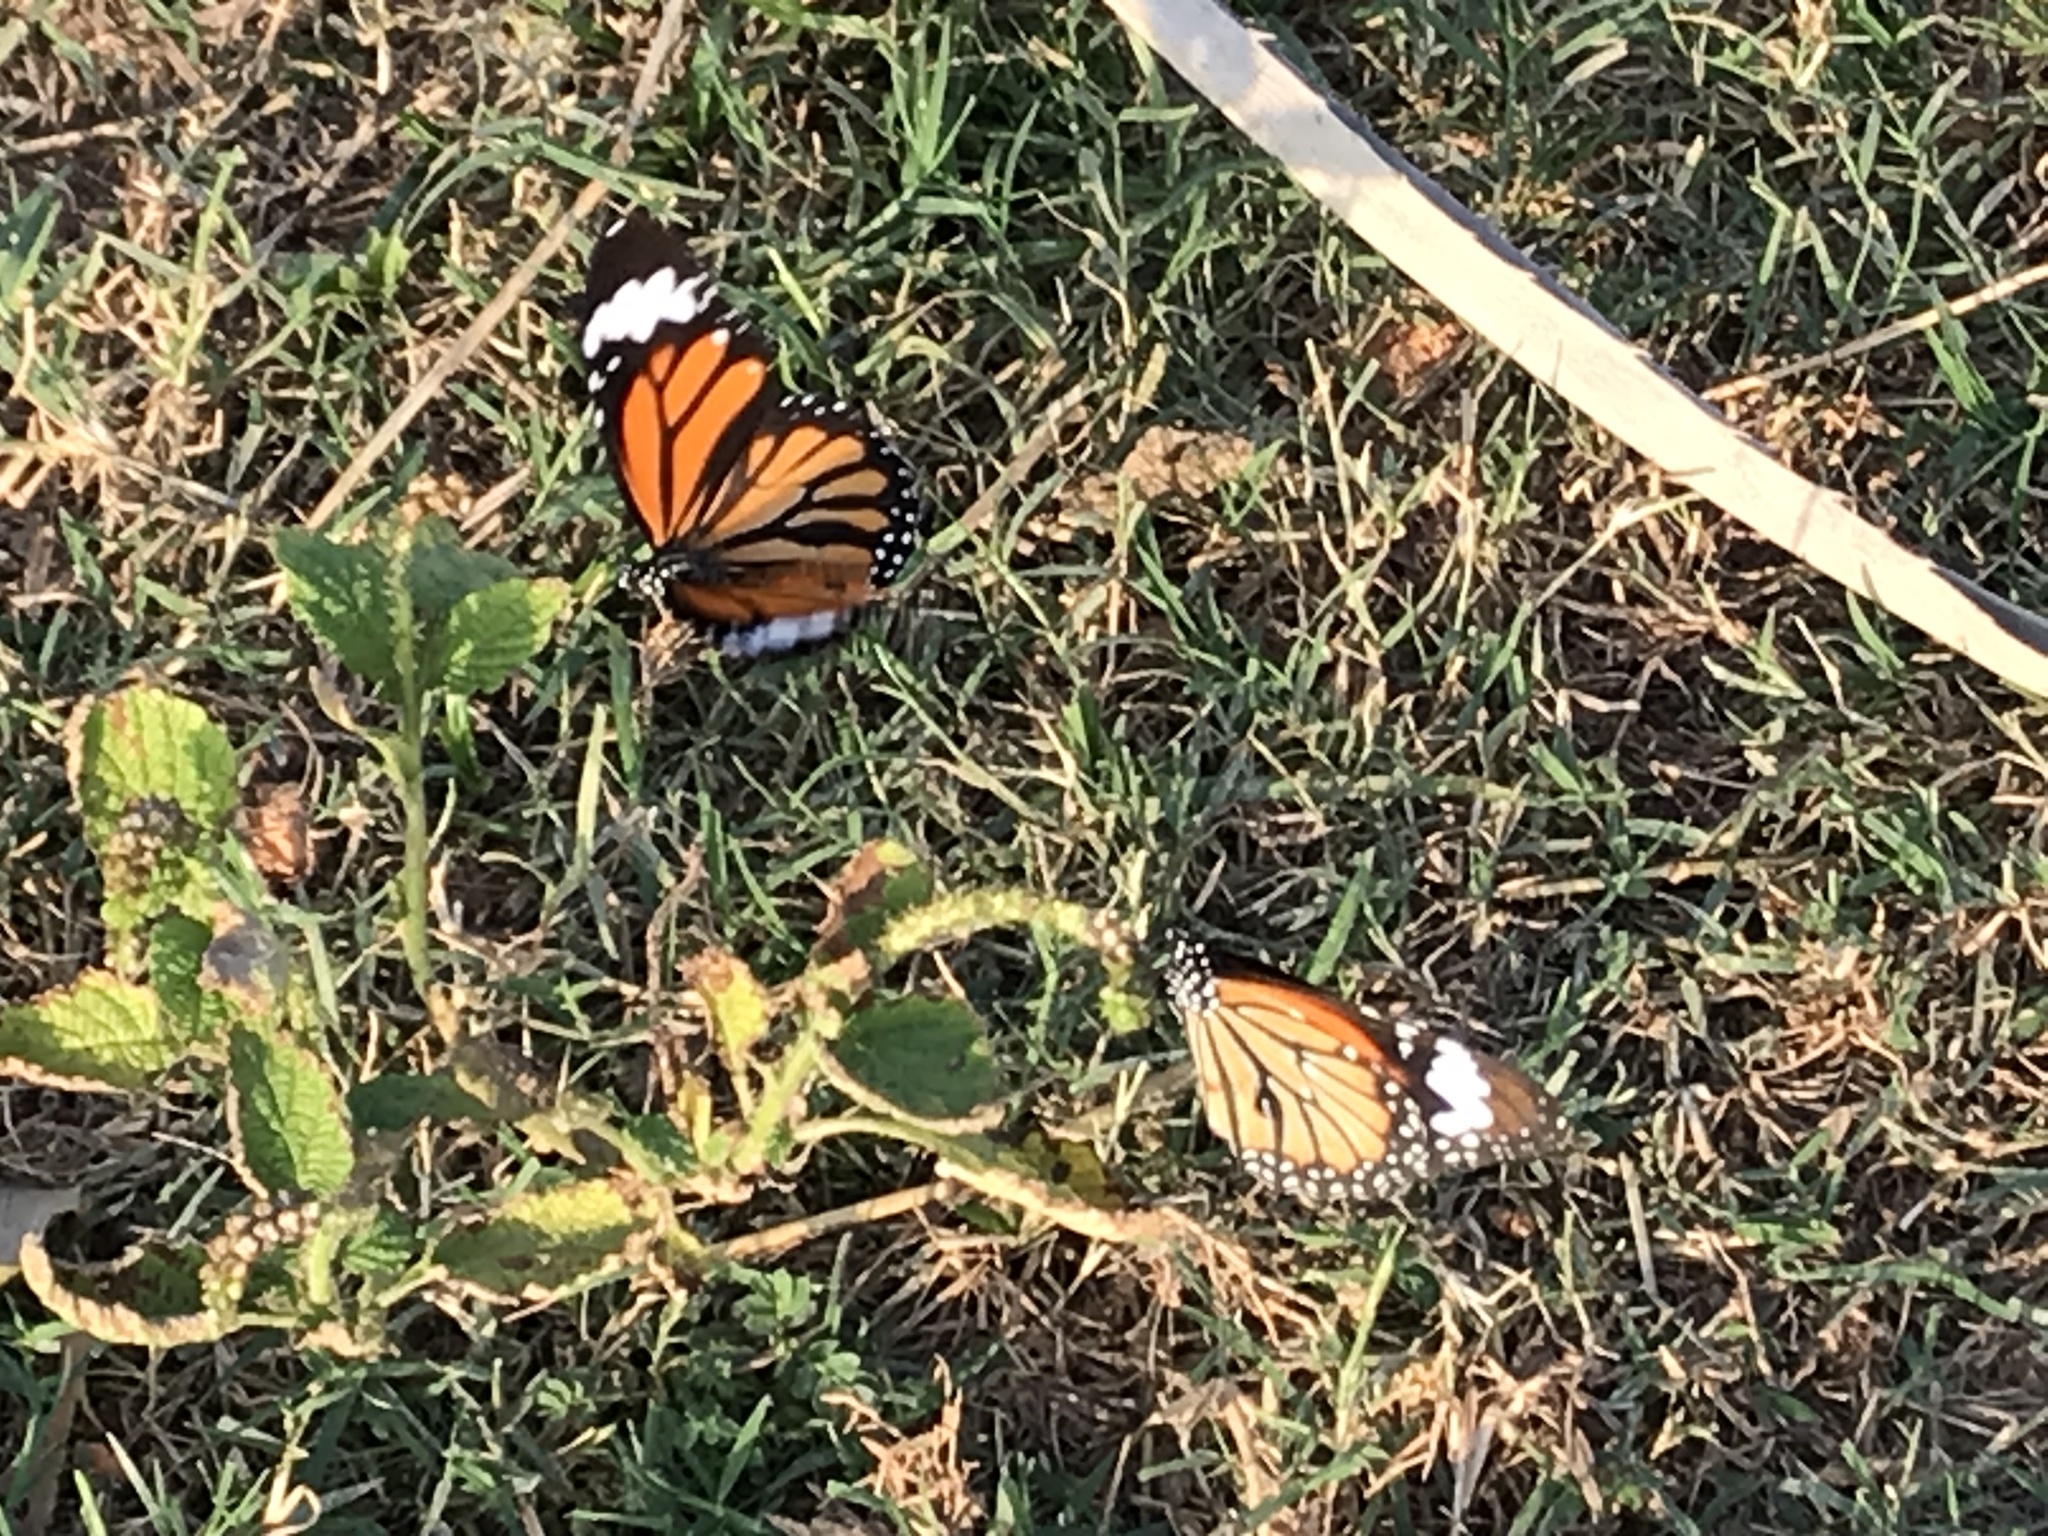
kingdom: Animalia
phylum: Arthropoda
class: Insecta
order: Lepidoptera
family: Nymphalidae
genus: Danaus
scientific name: Danaus genutia
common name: Common tiger butterfly
